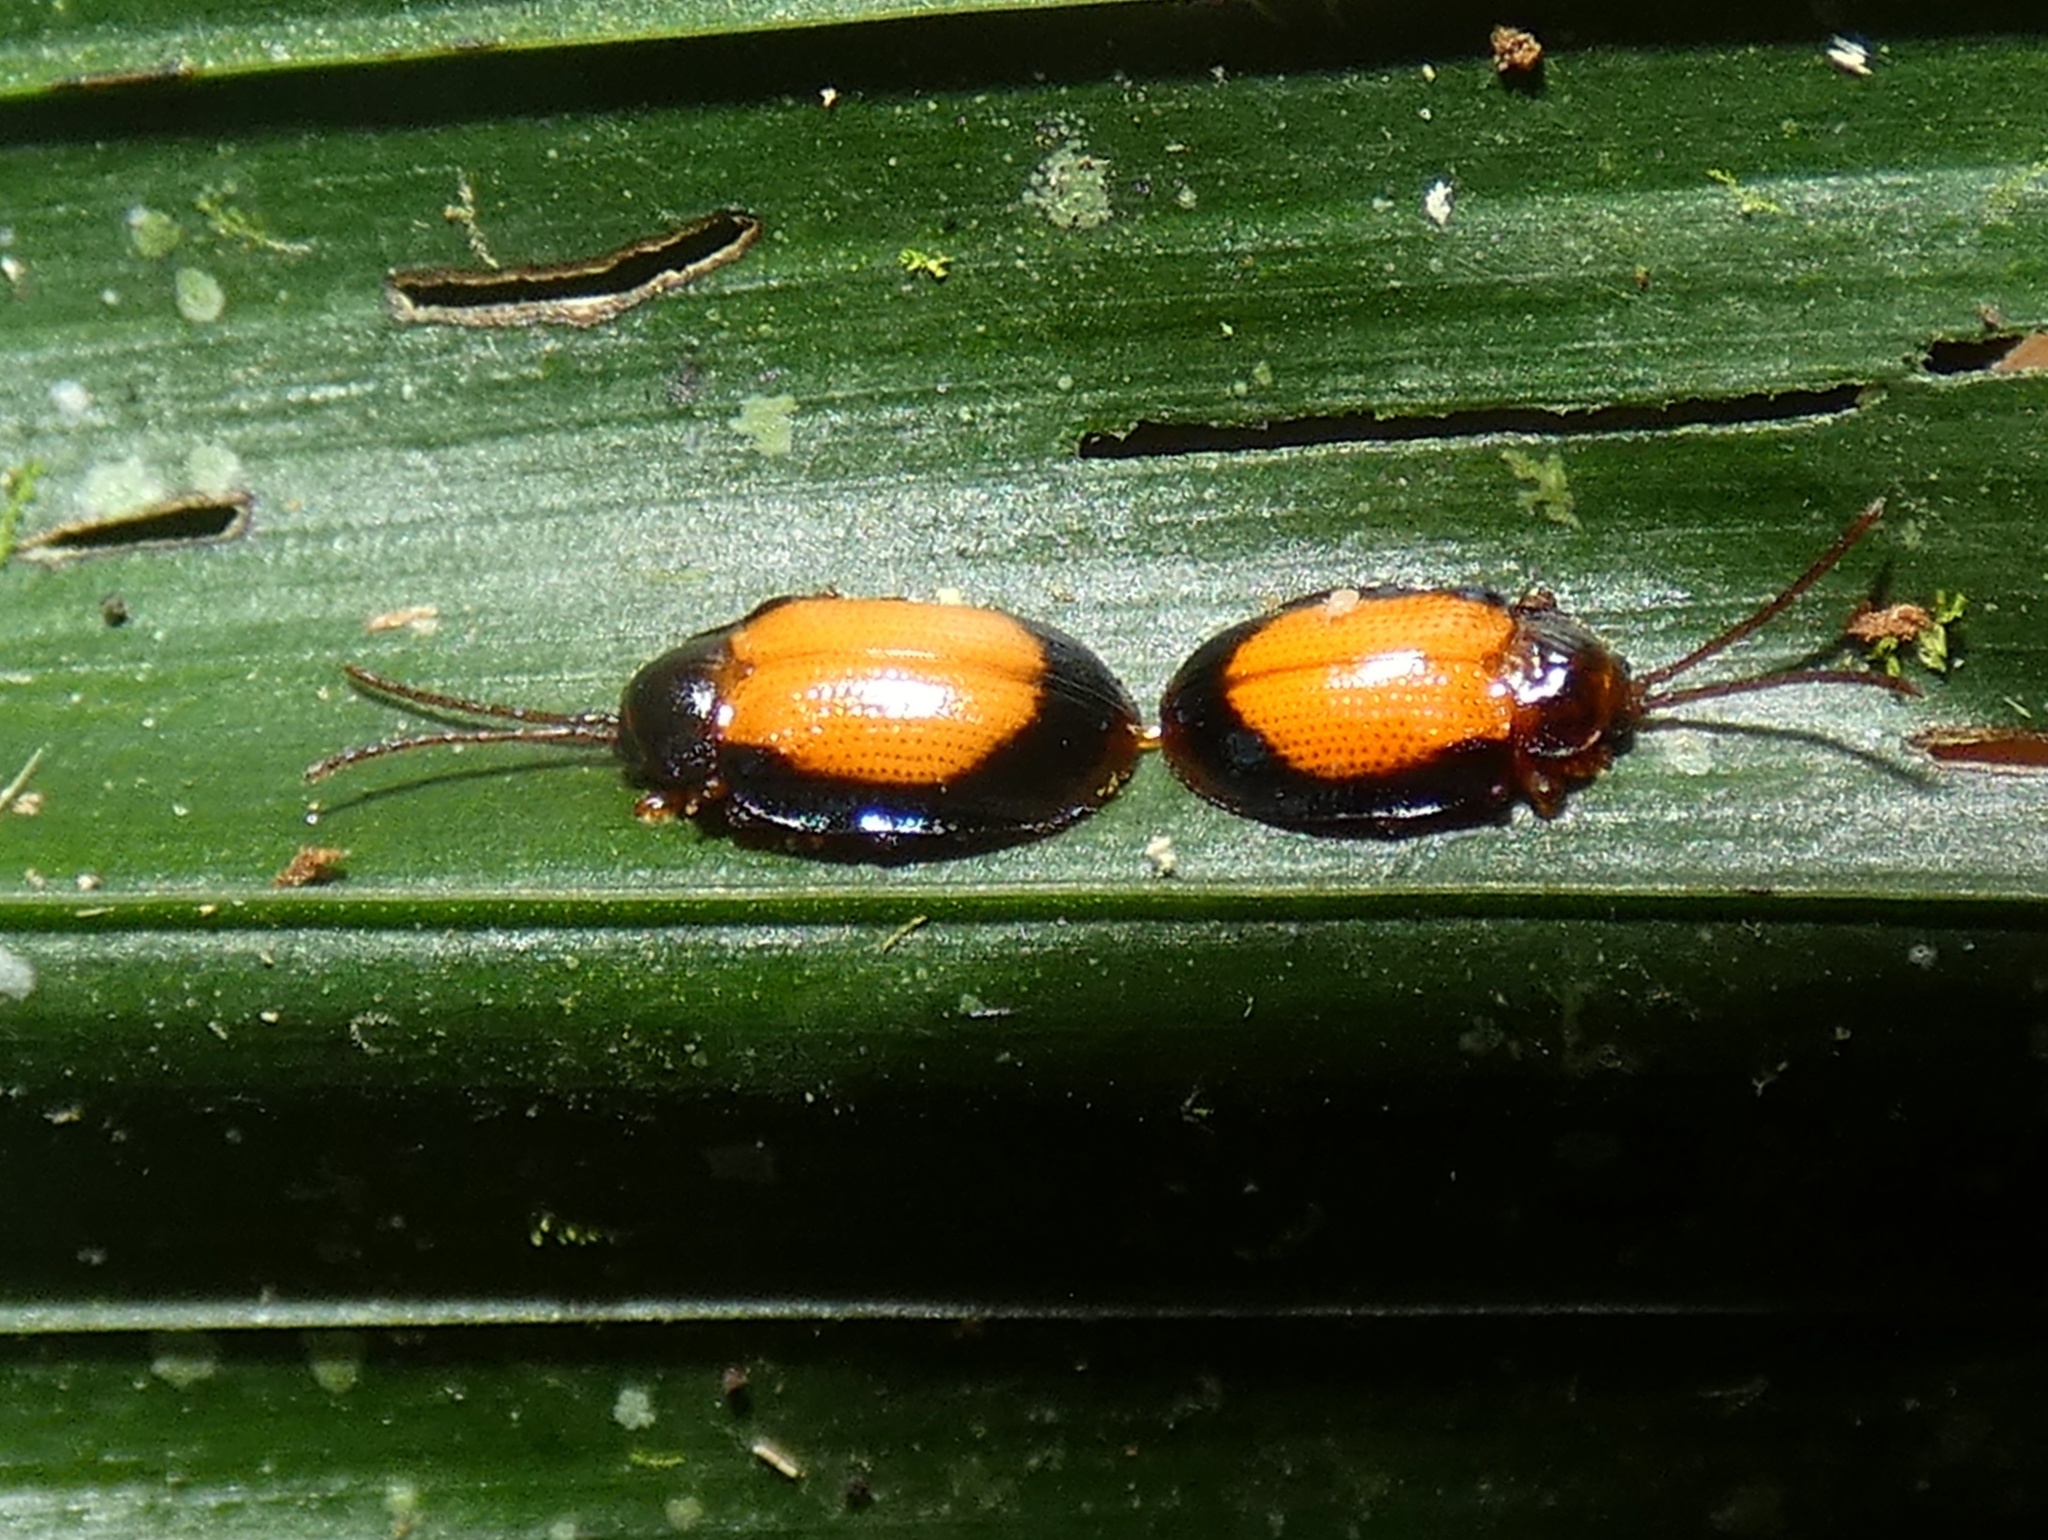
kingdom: Animalia
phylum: Arthropoda
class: Insecta
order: Coleoptera
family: Chrysomelidae
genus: Calyptocephala
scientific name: Calyptocephala discoidea
